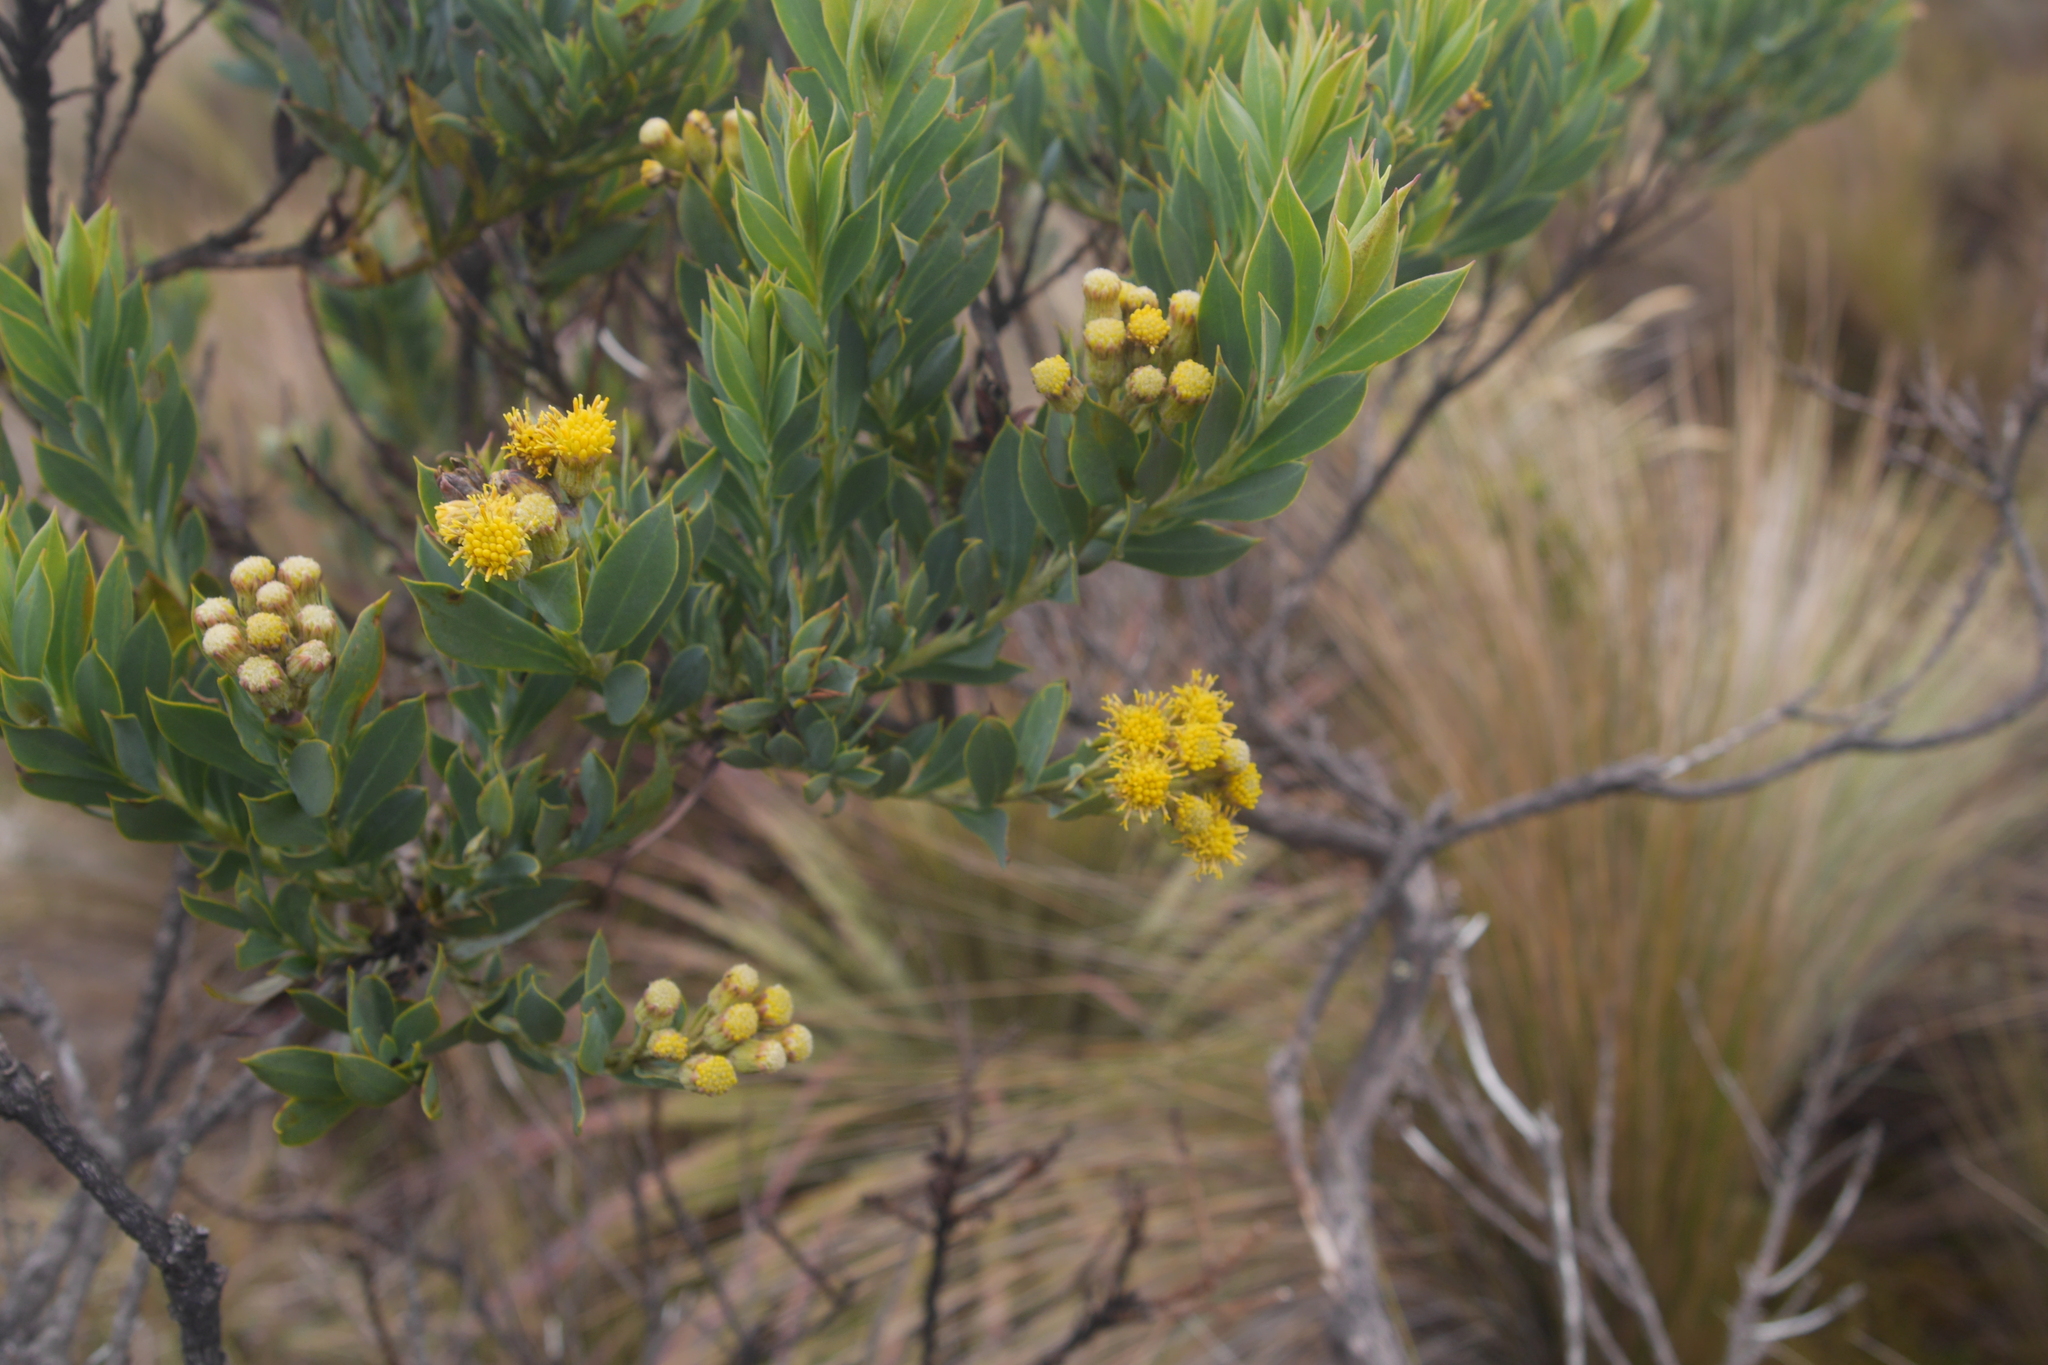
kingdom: Plantae
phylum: Tracheophyta
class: Magnoliopsida
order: Asterales
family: Asteraceae
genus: Monticalia
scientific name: Monticalia vaccinioides
